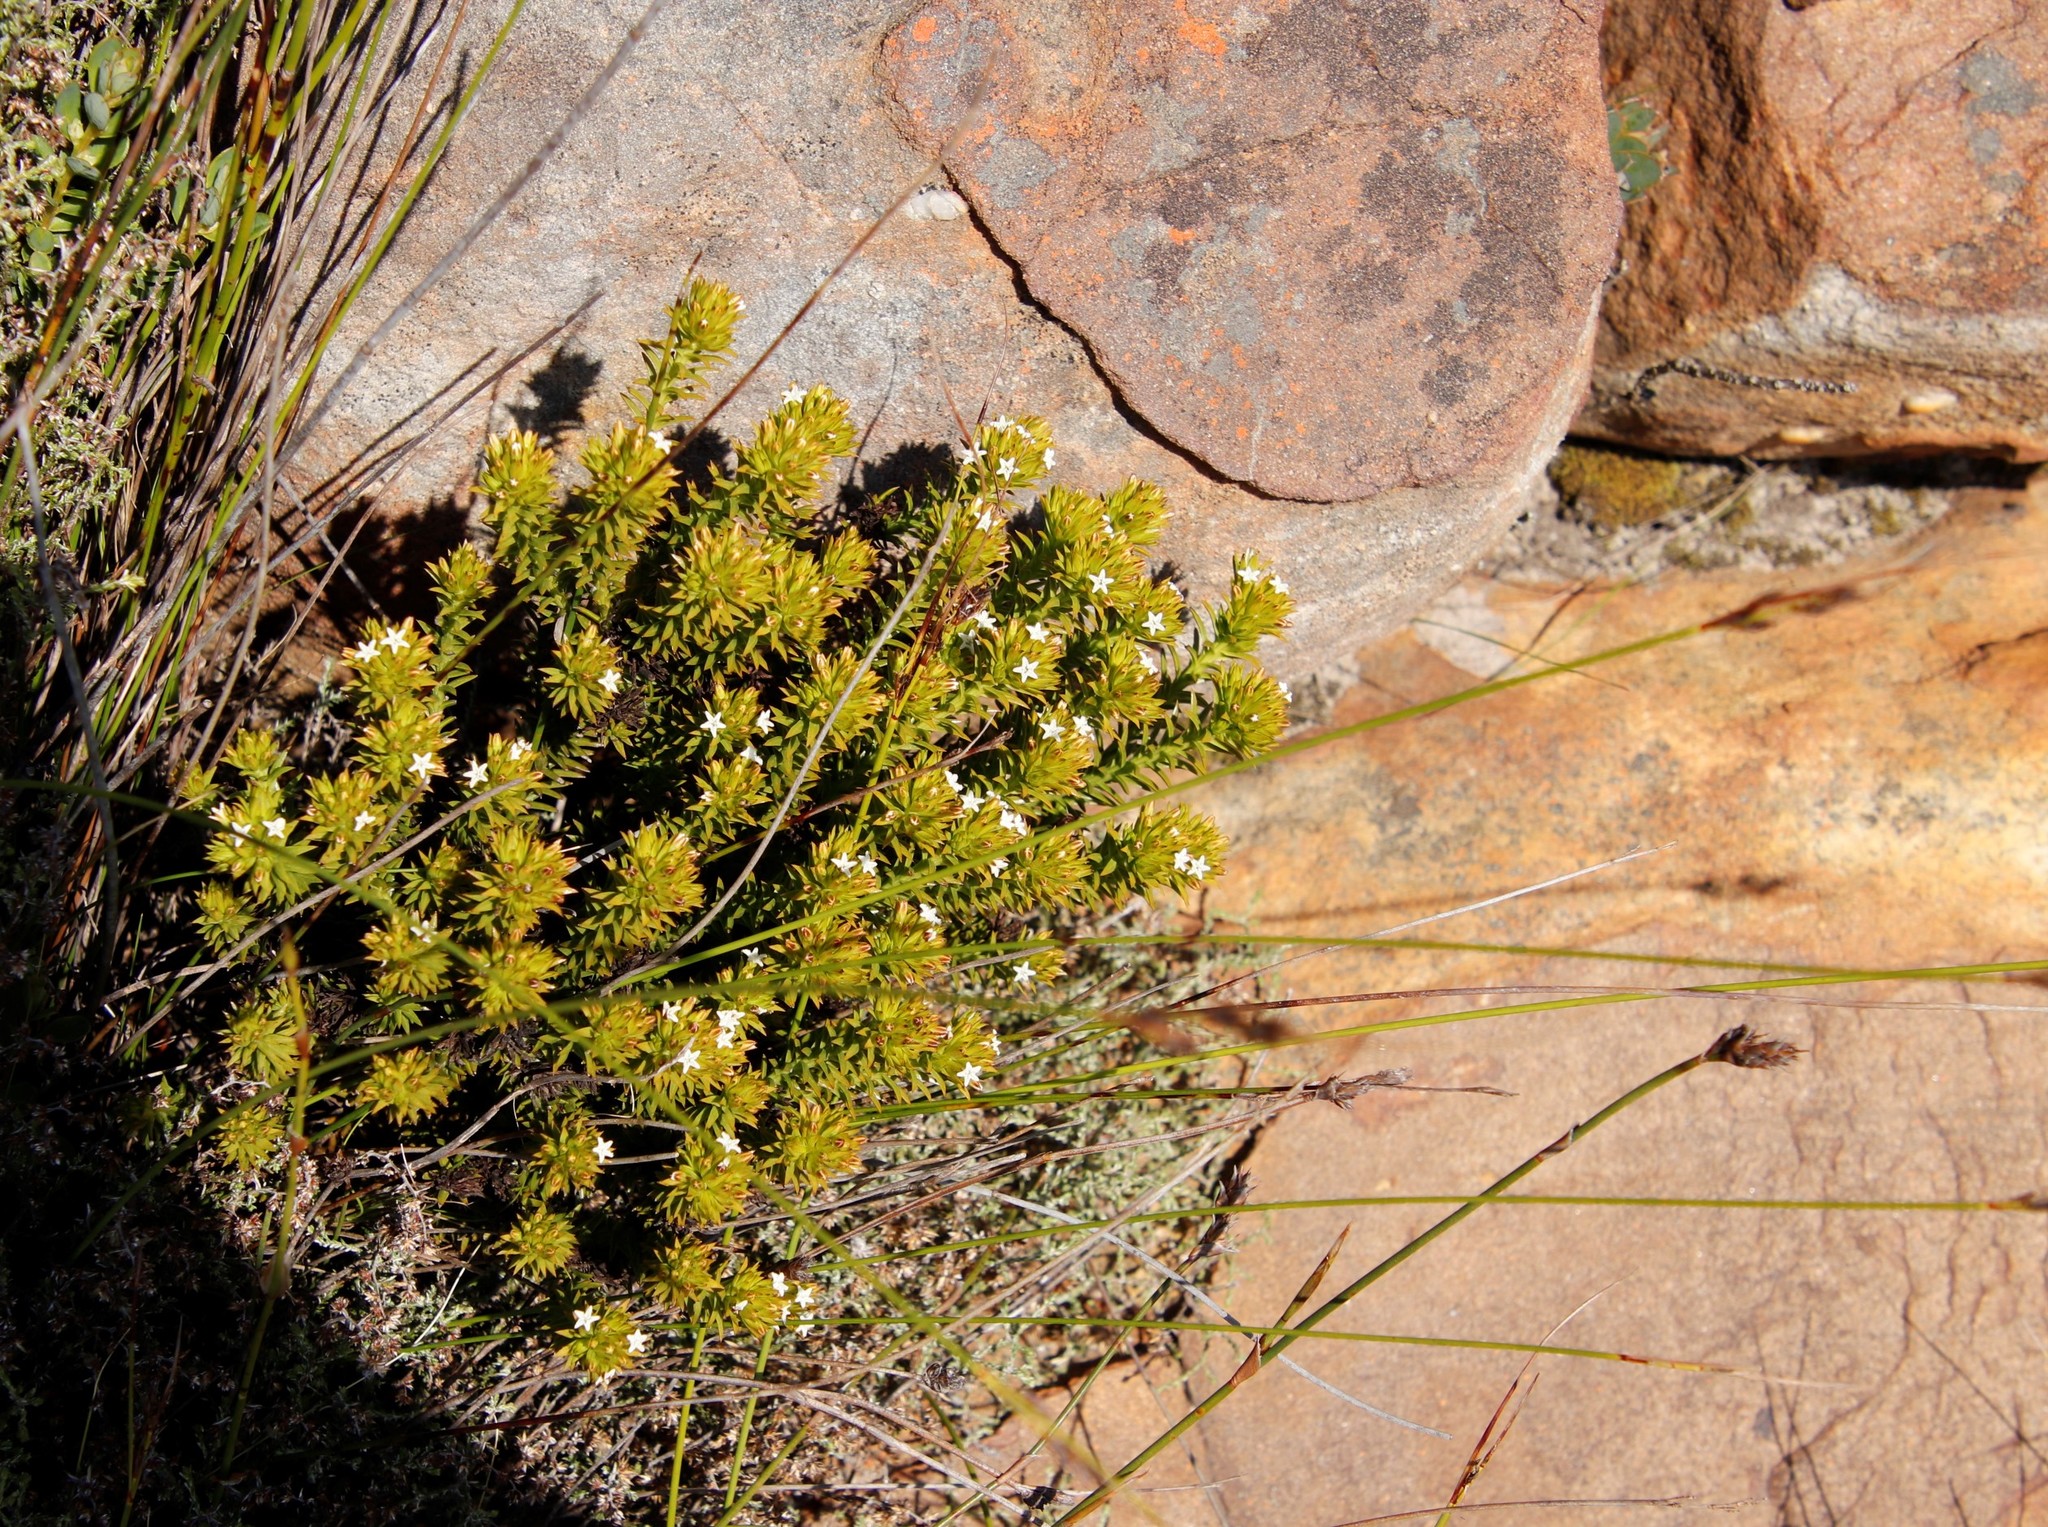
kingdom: Plantae
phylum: Tracheophyta
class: Magnoliopsida
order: Santalales
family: Thesiaceae
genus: Thesium
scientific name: Thesium viridifolium
